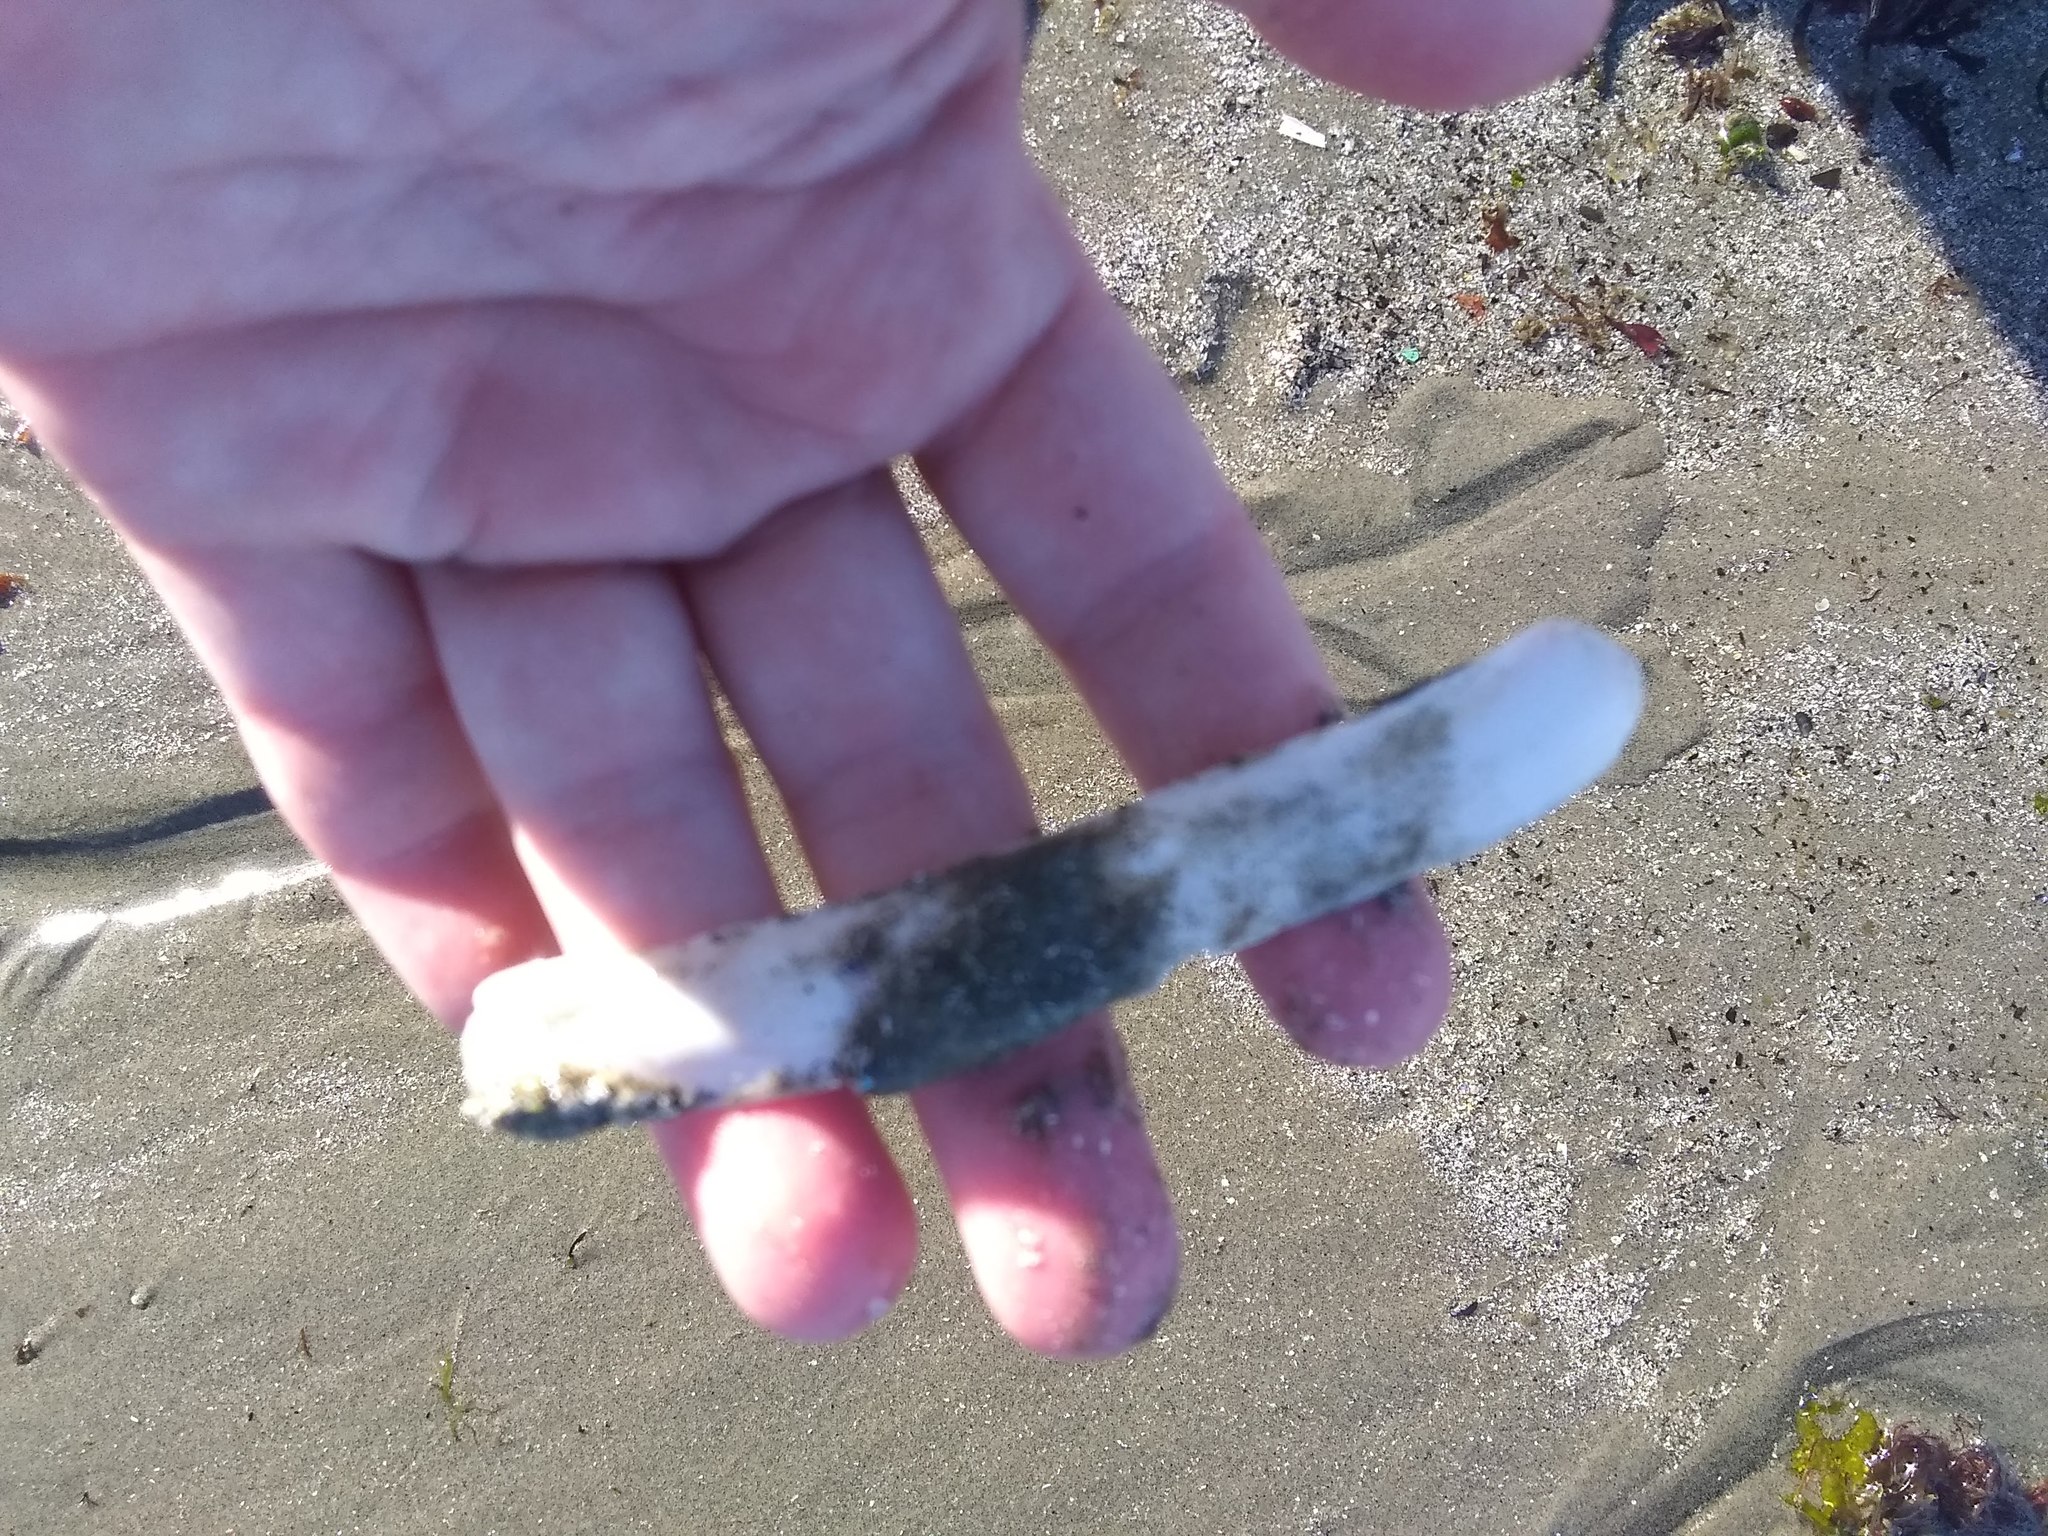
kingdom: Animalia
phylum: Mollusca
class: Bivalvia
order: Adapedonta
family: Pharidae
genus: Ensis
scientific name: Ensis leei
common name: American jack knife clam
